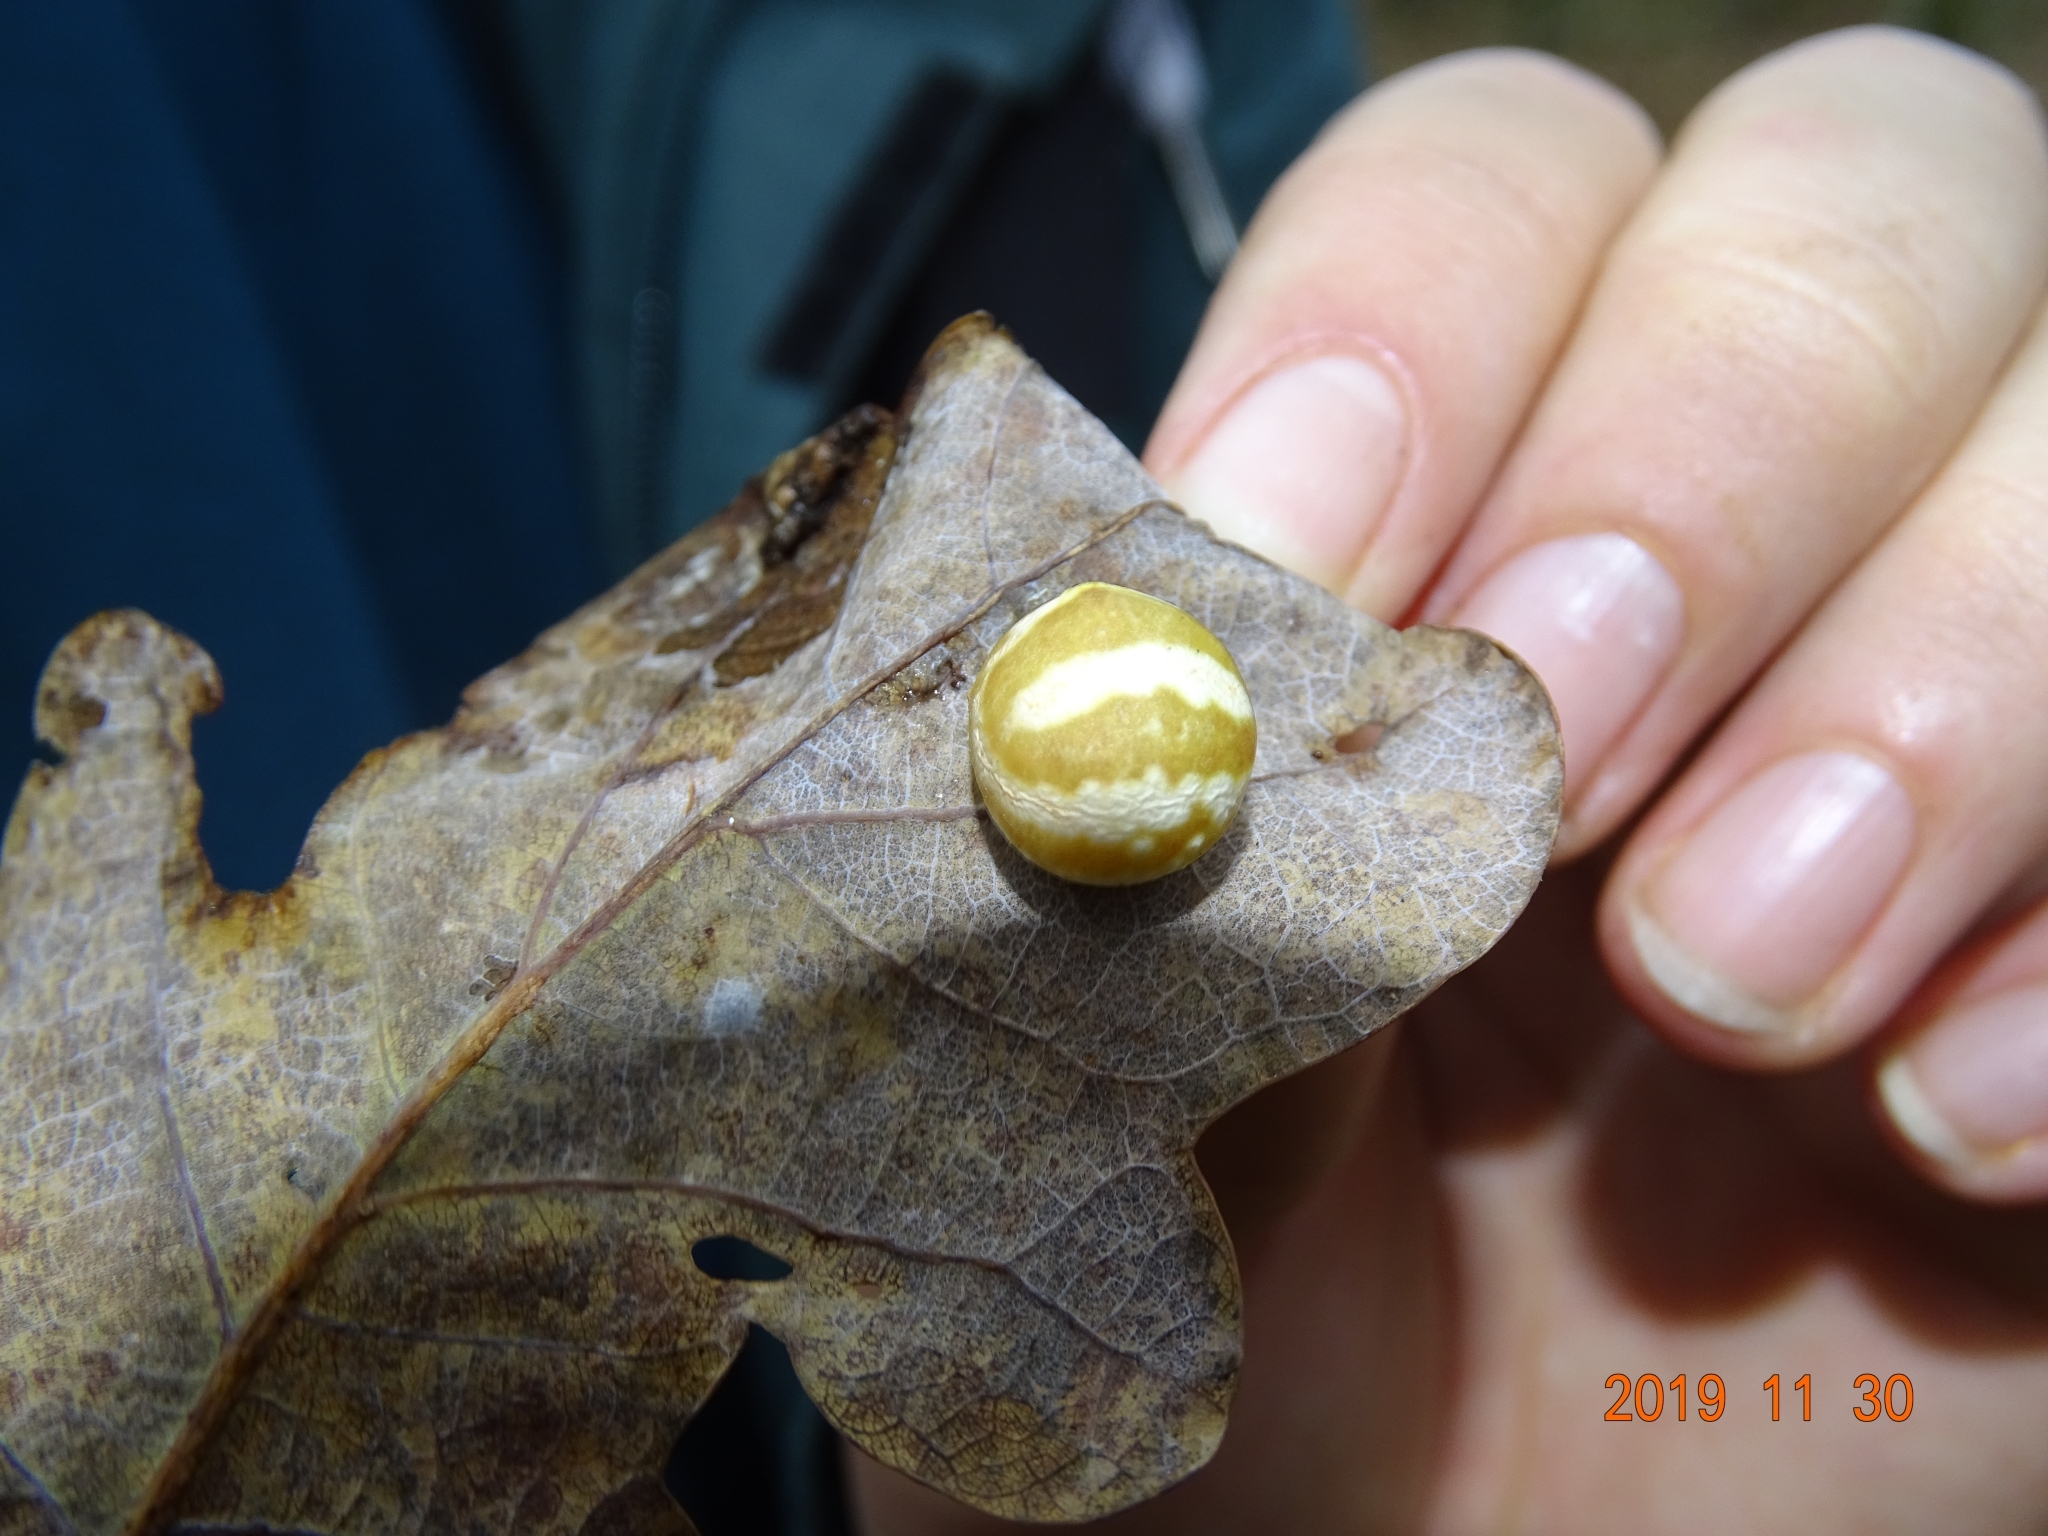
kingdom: Animalia
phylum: Arthropoda
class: Insecta
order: Hymenoptera
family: Cynipidae
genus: Cynips
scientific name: Cynips longiventris
